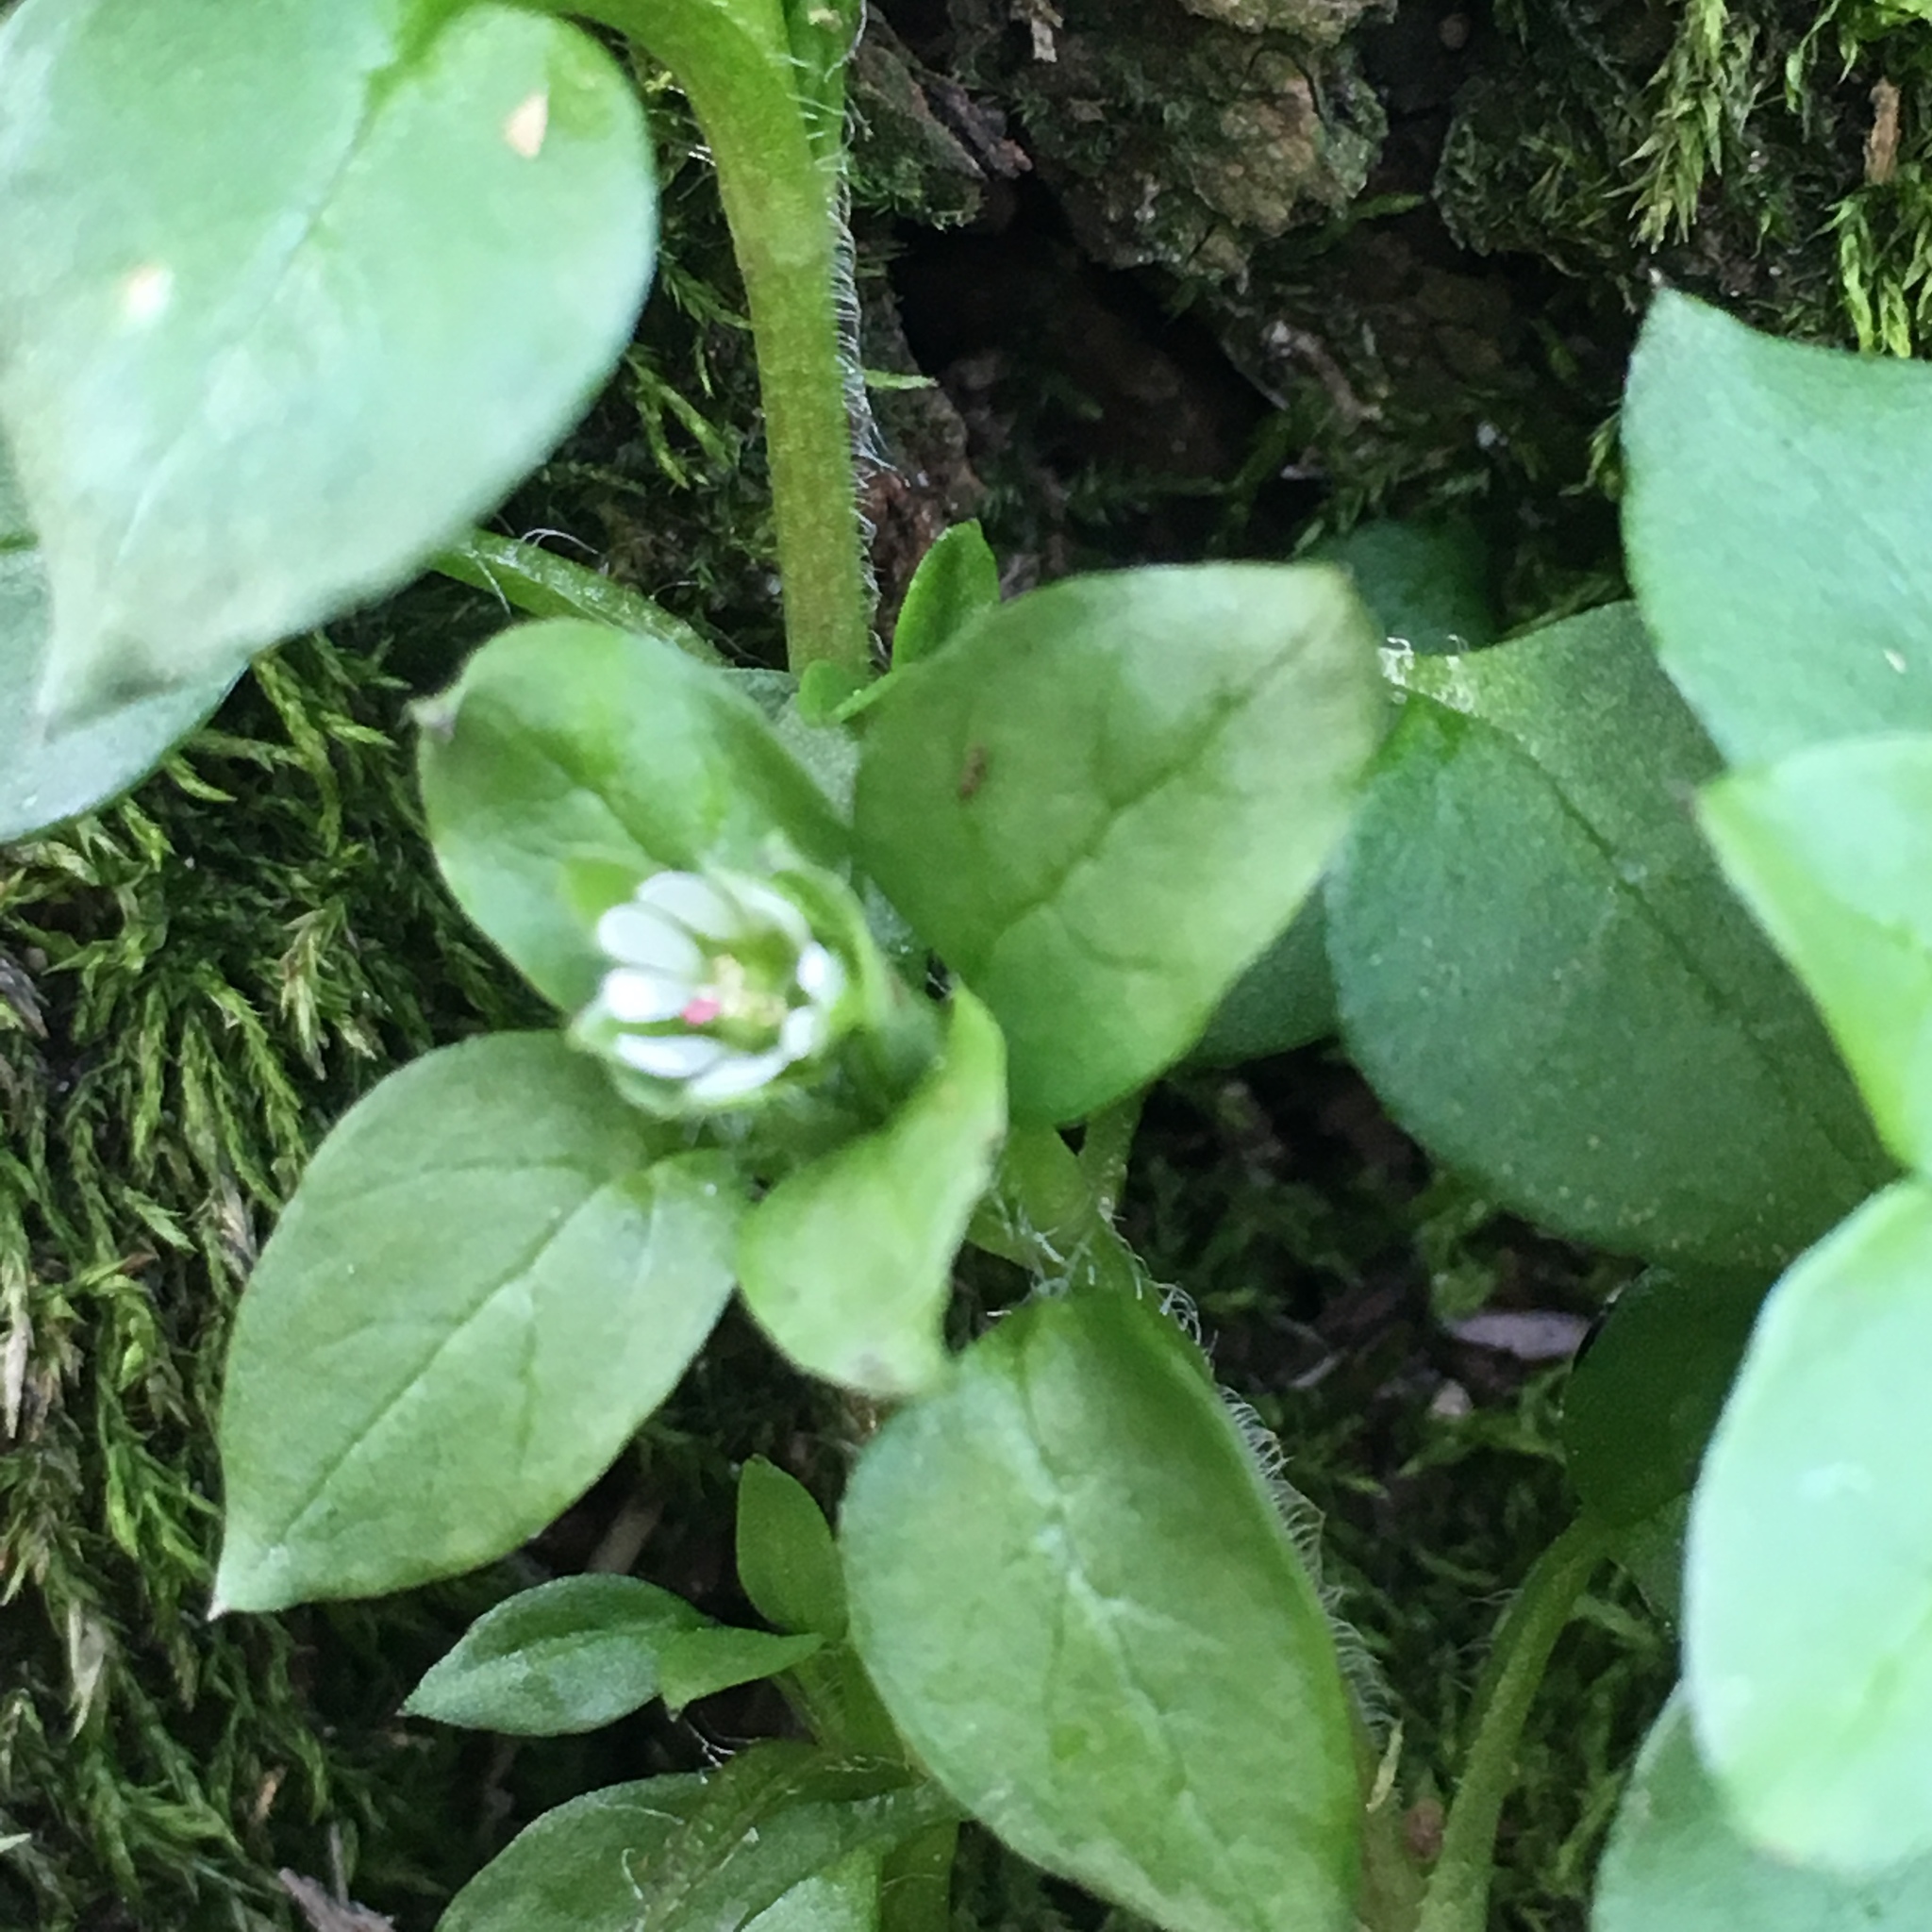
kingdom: Plantae
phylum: Tracheophyta
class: Magnoliopsida
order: Caryophyllales
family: Caryophyllaceae
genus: Stellaria
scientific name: Stellaria media
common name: Common chickweed
